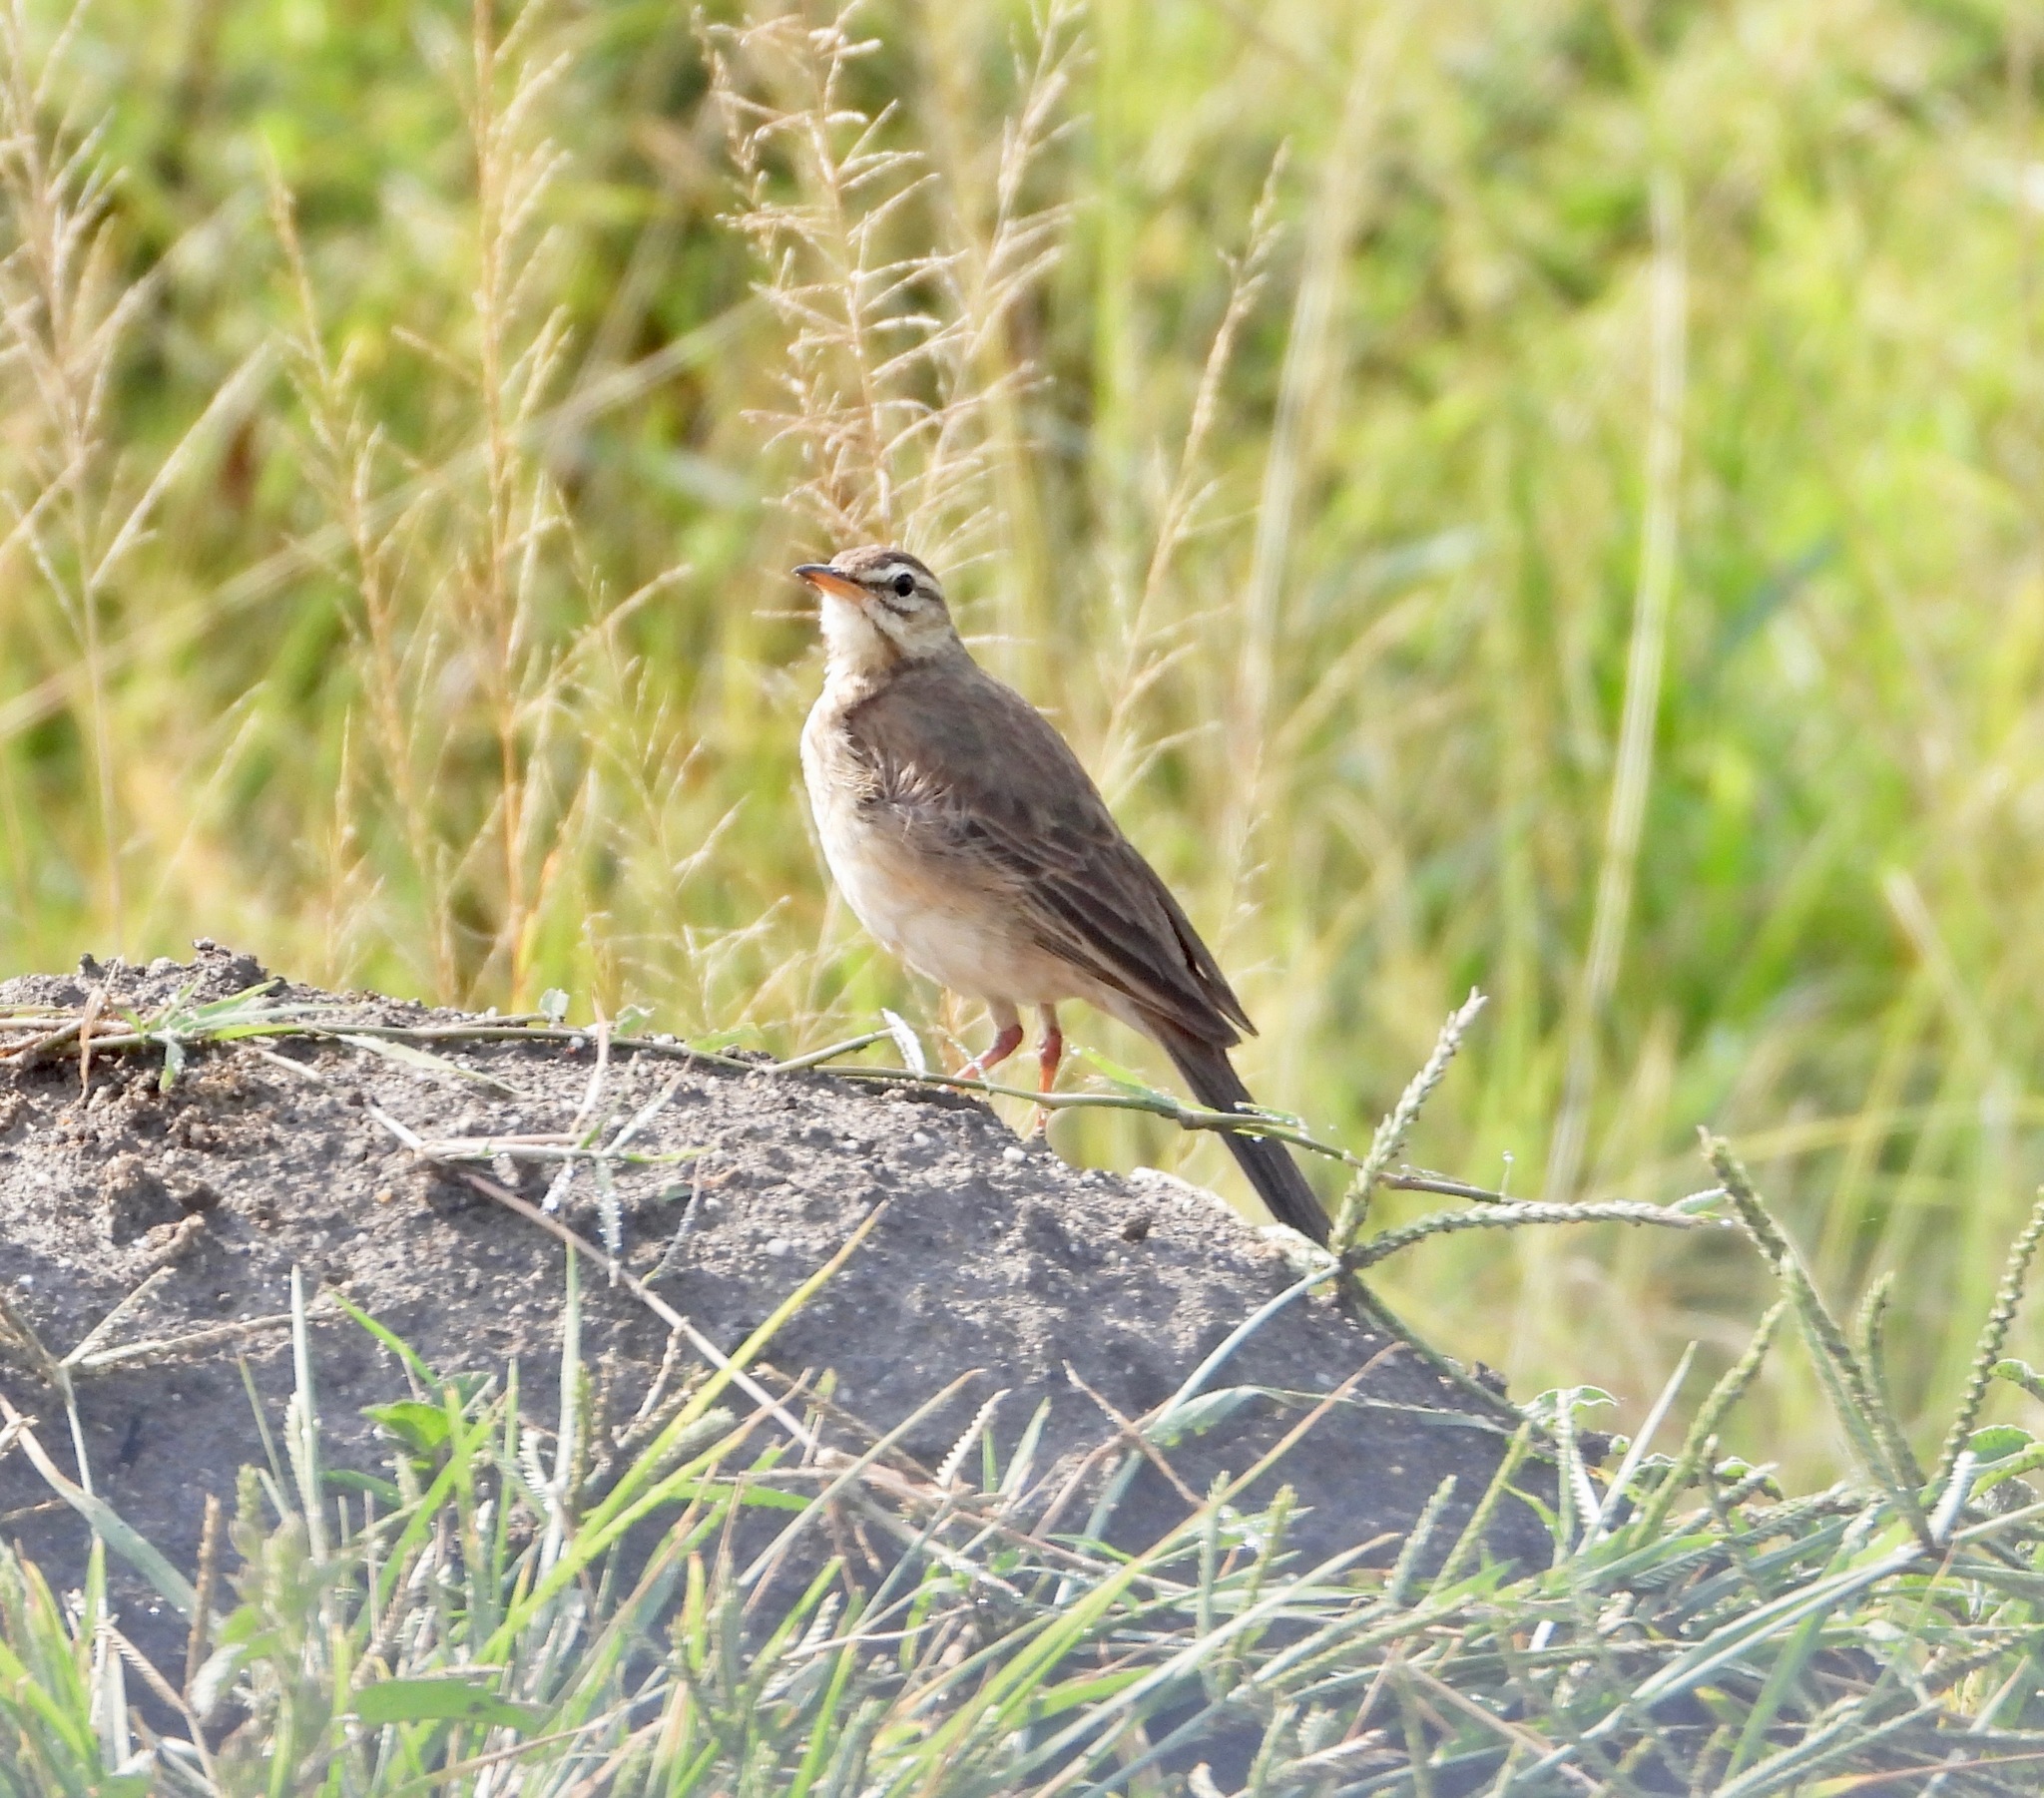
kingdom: Animalia
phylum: Chordata
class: Aves
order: Passeriformes
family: Motacillidae
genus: Anthus
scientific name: Anthus leucophrys
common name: Plain-backed pipit
